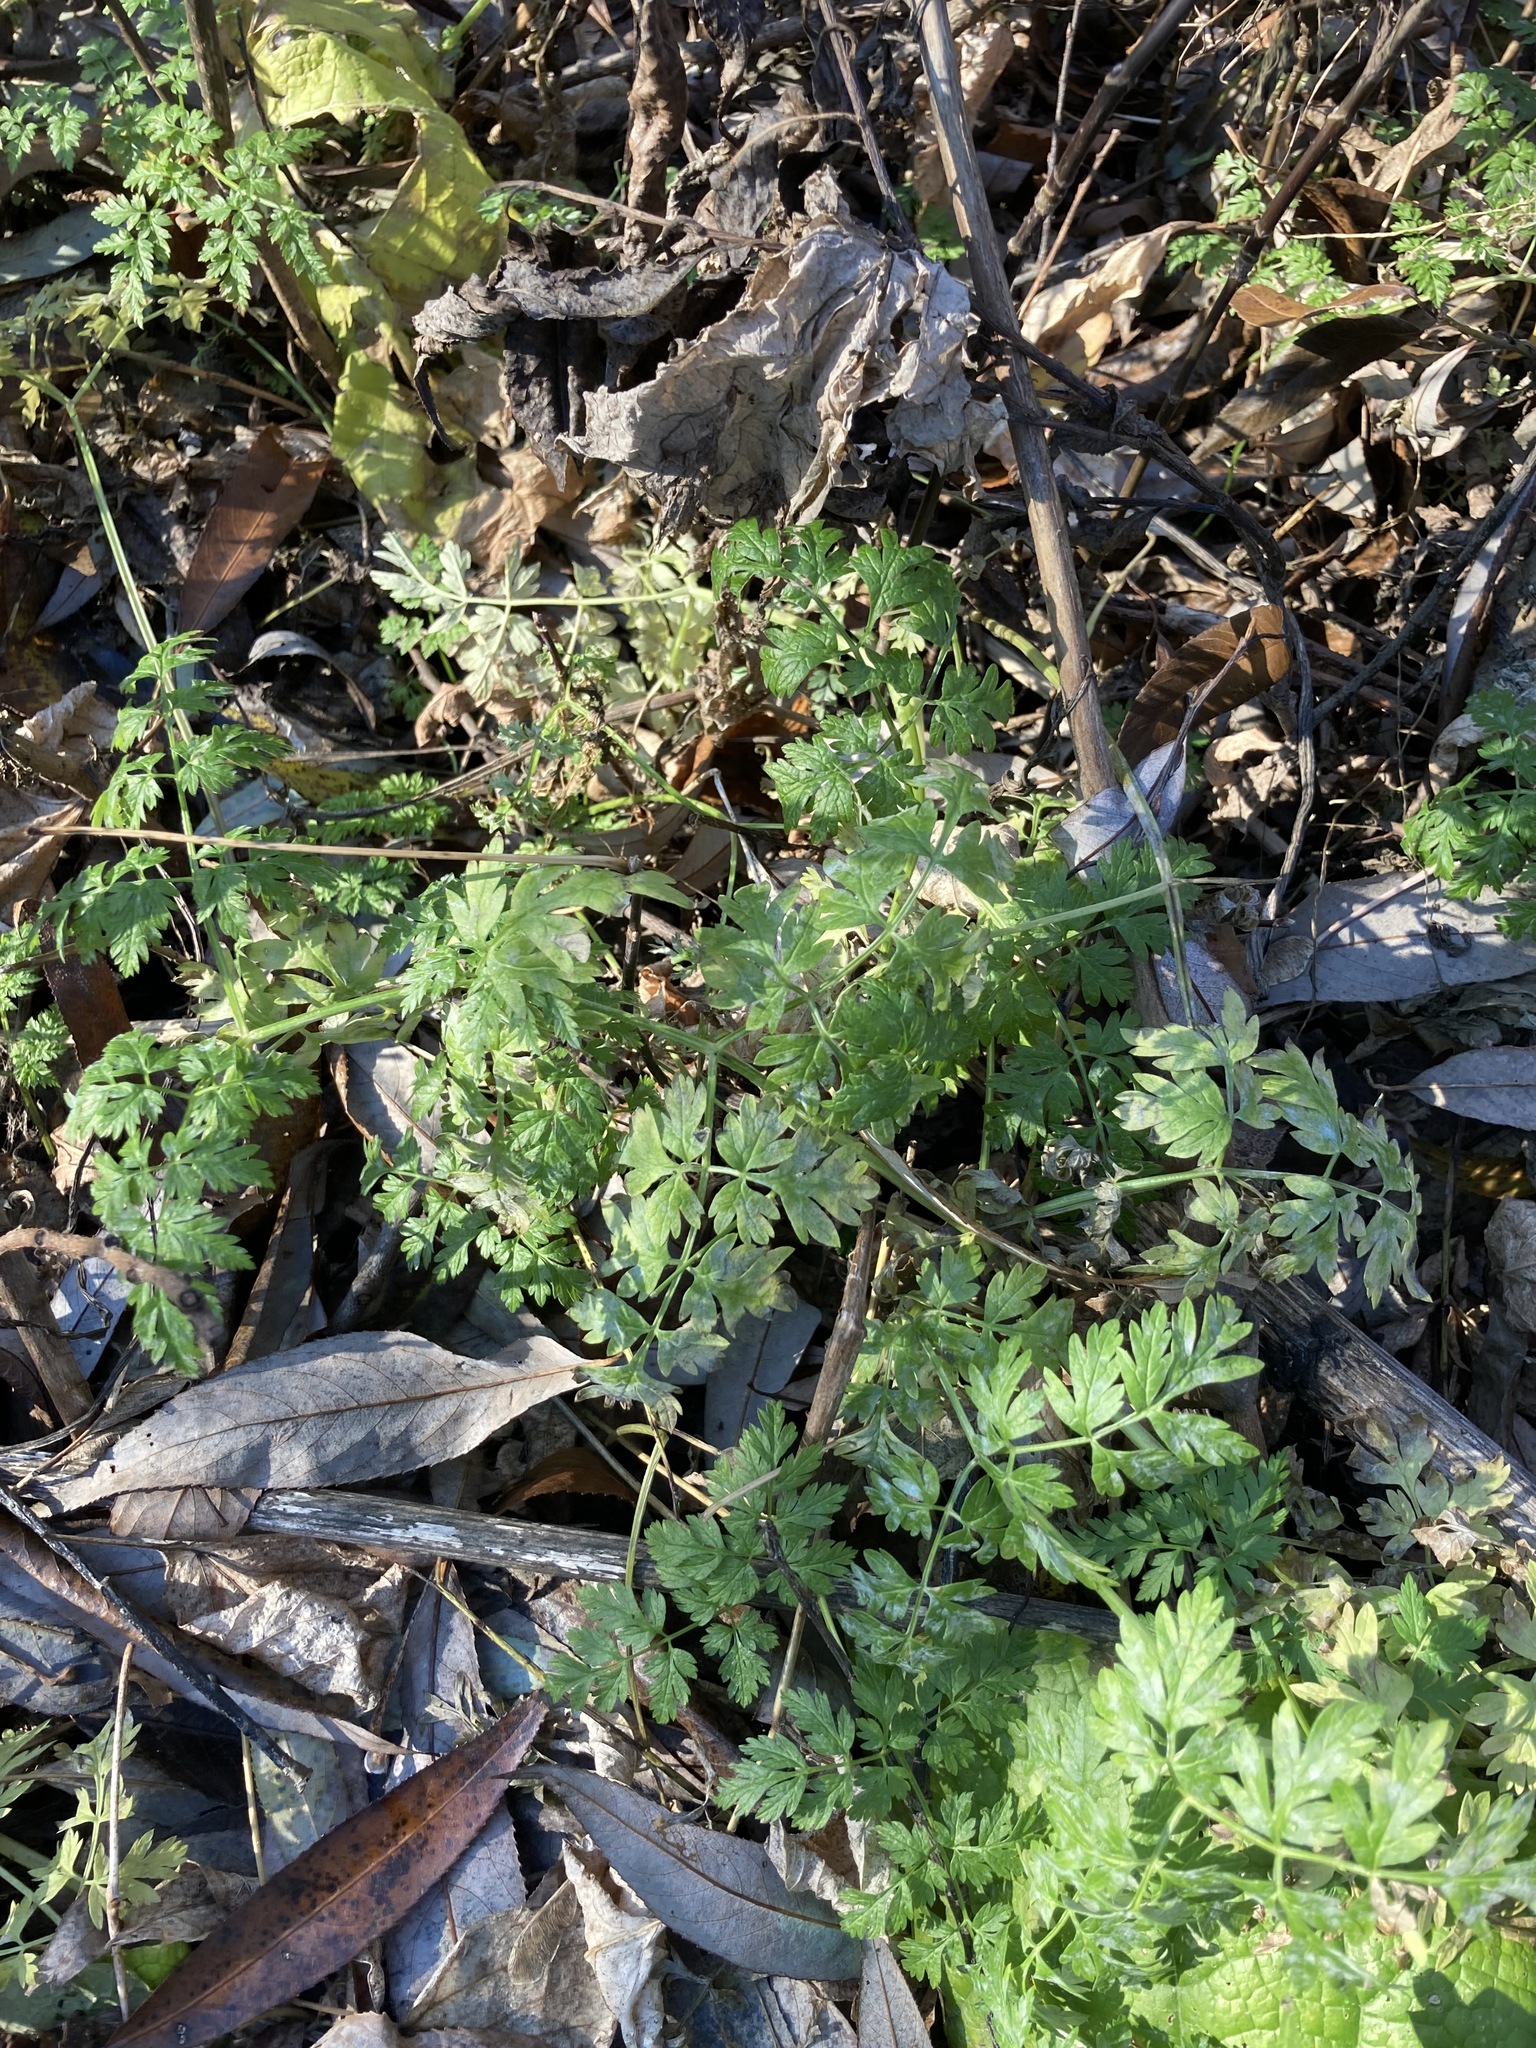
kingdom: Plantae
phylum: Tracheophyta
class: Magnoliopsida
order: Apiales
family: Apiaceae
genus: Anthriscus
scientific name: Anthriscus sylvestris
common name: Cow parsley
